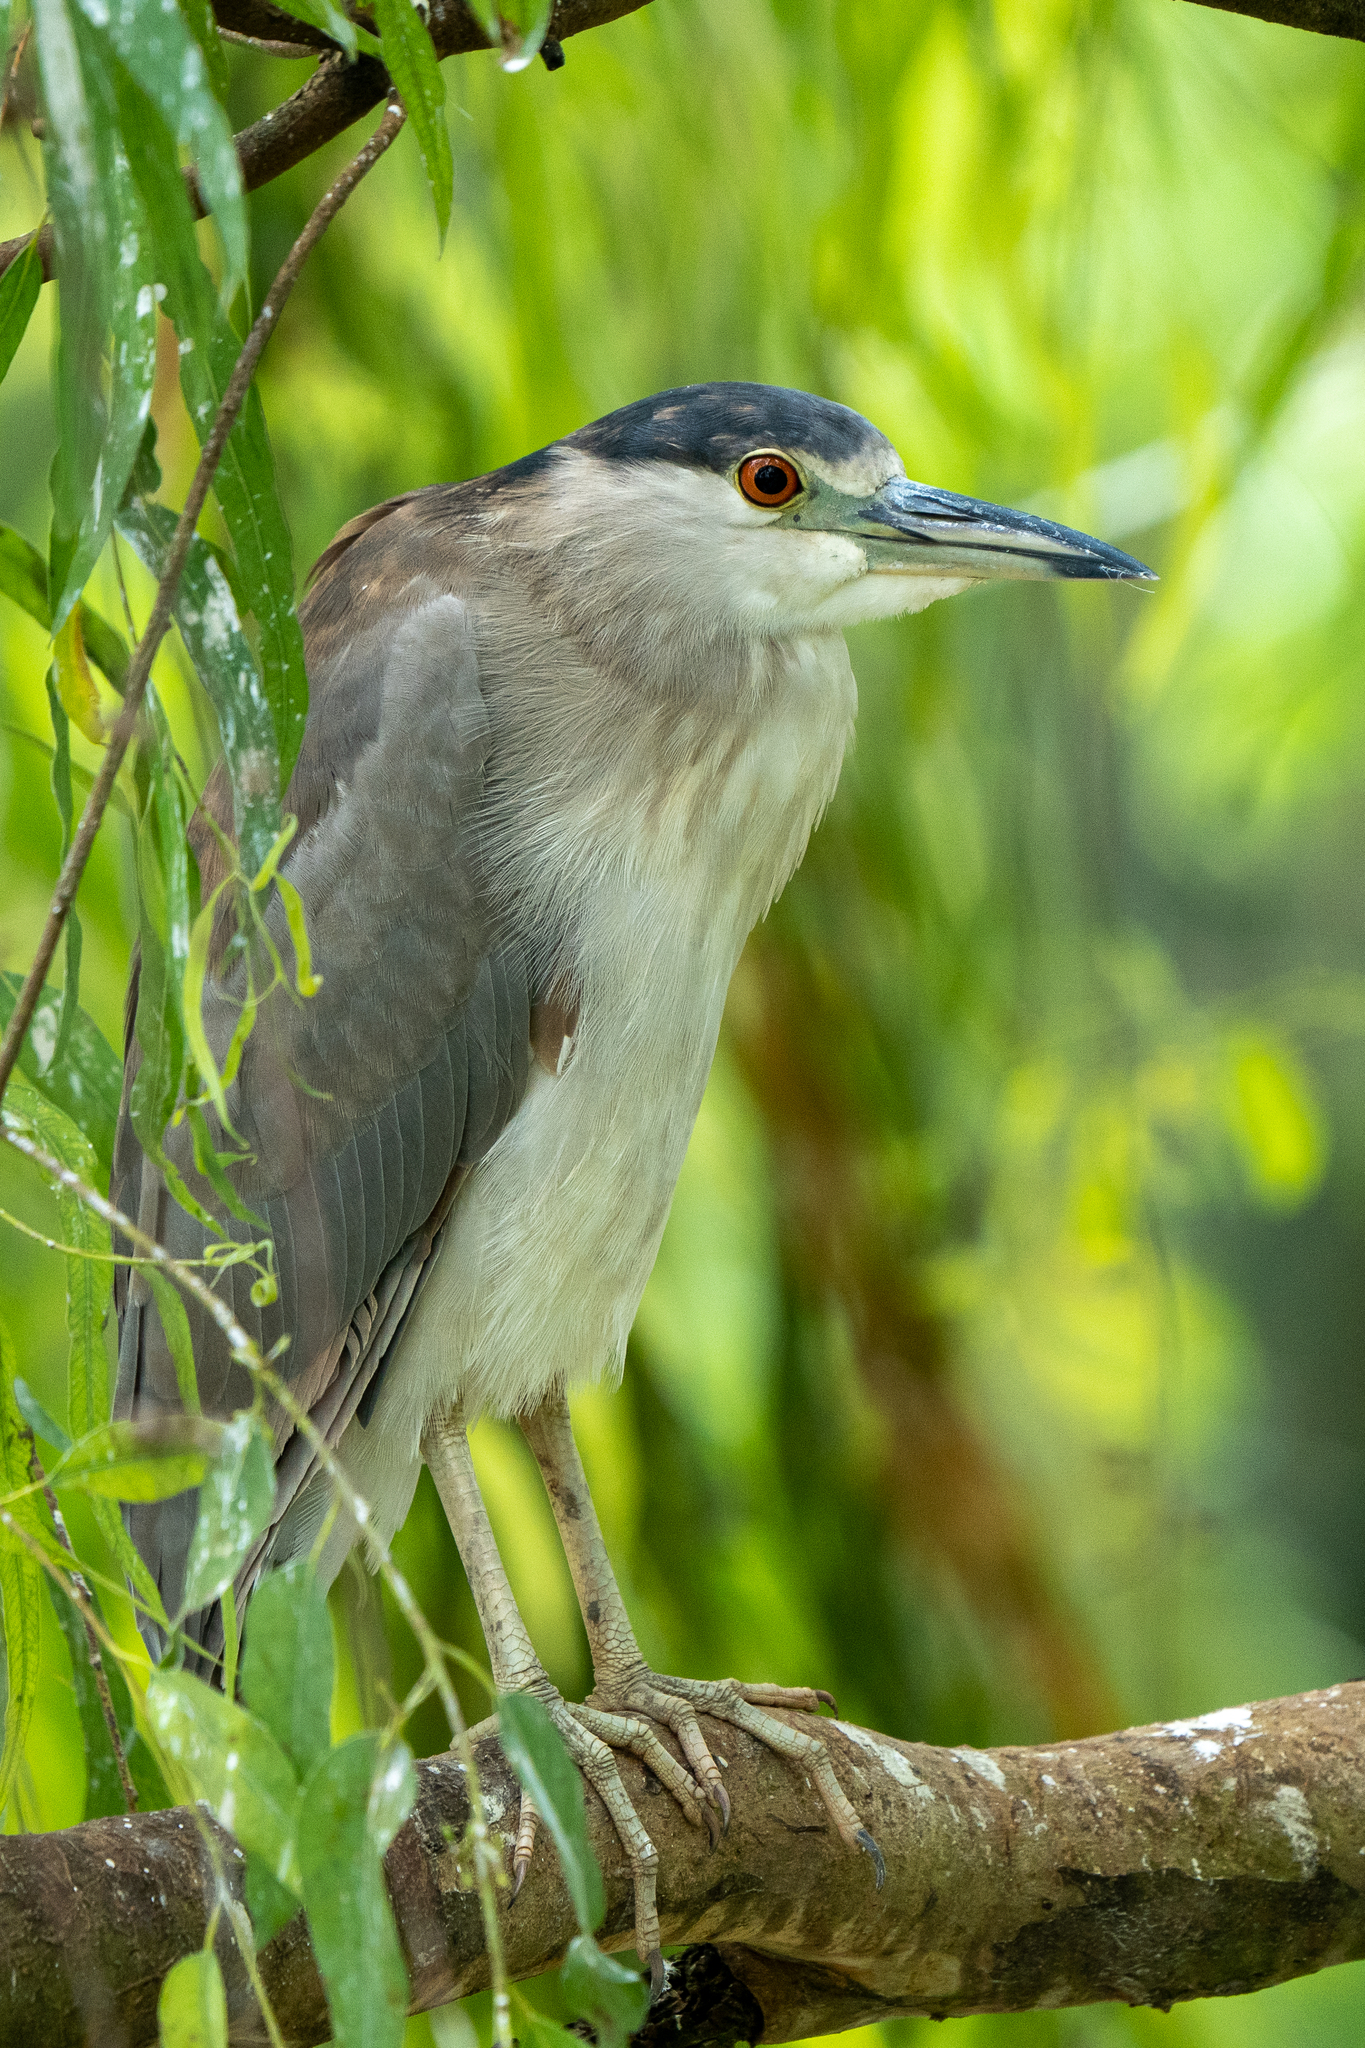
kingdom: Animalia
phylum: Chordata
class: Aves
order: Pelecaniformes
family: Ardeidae
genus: Nycticorax
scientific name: Nycticorax nycticorax
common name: Black-crowned night heron
